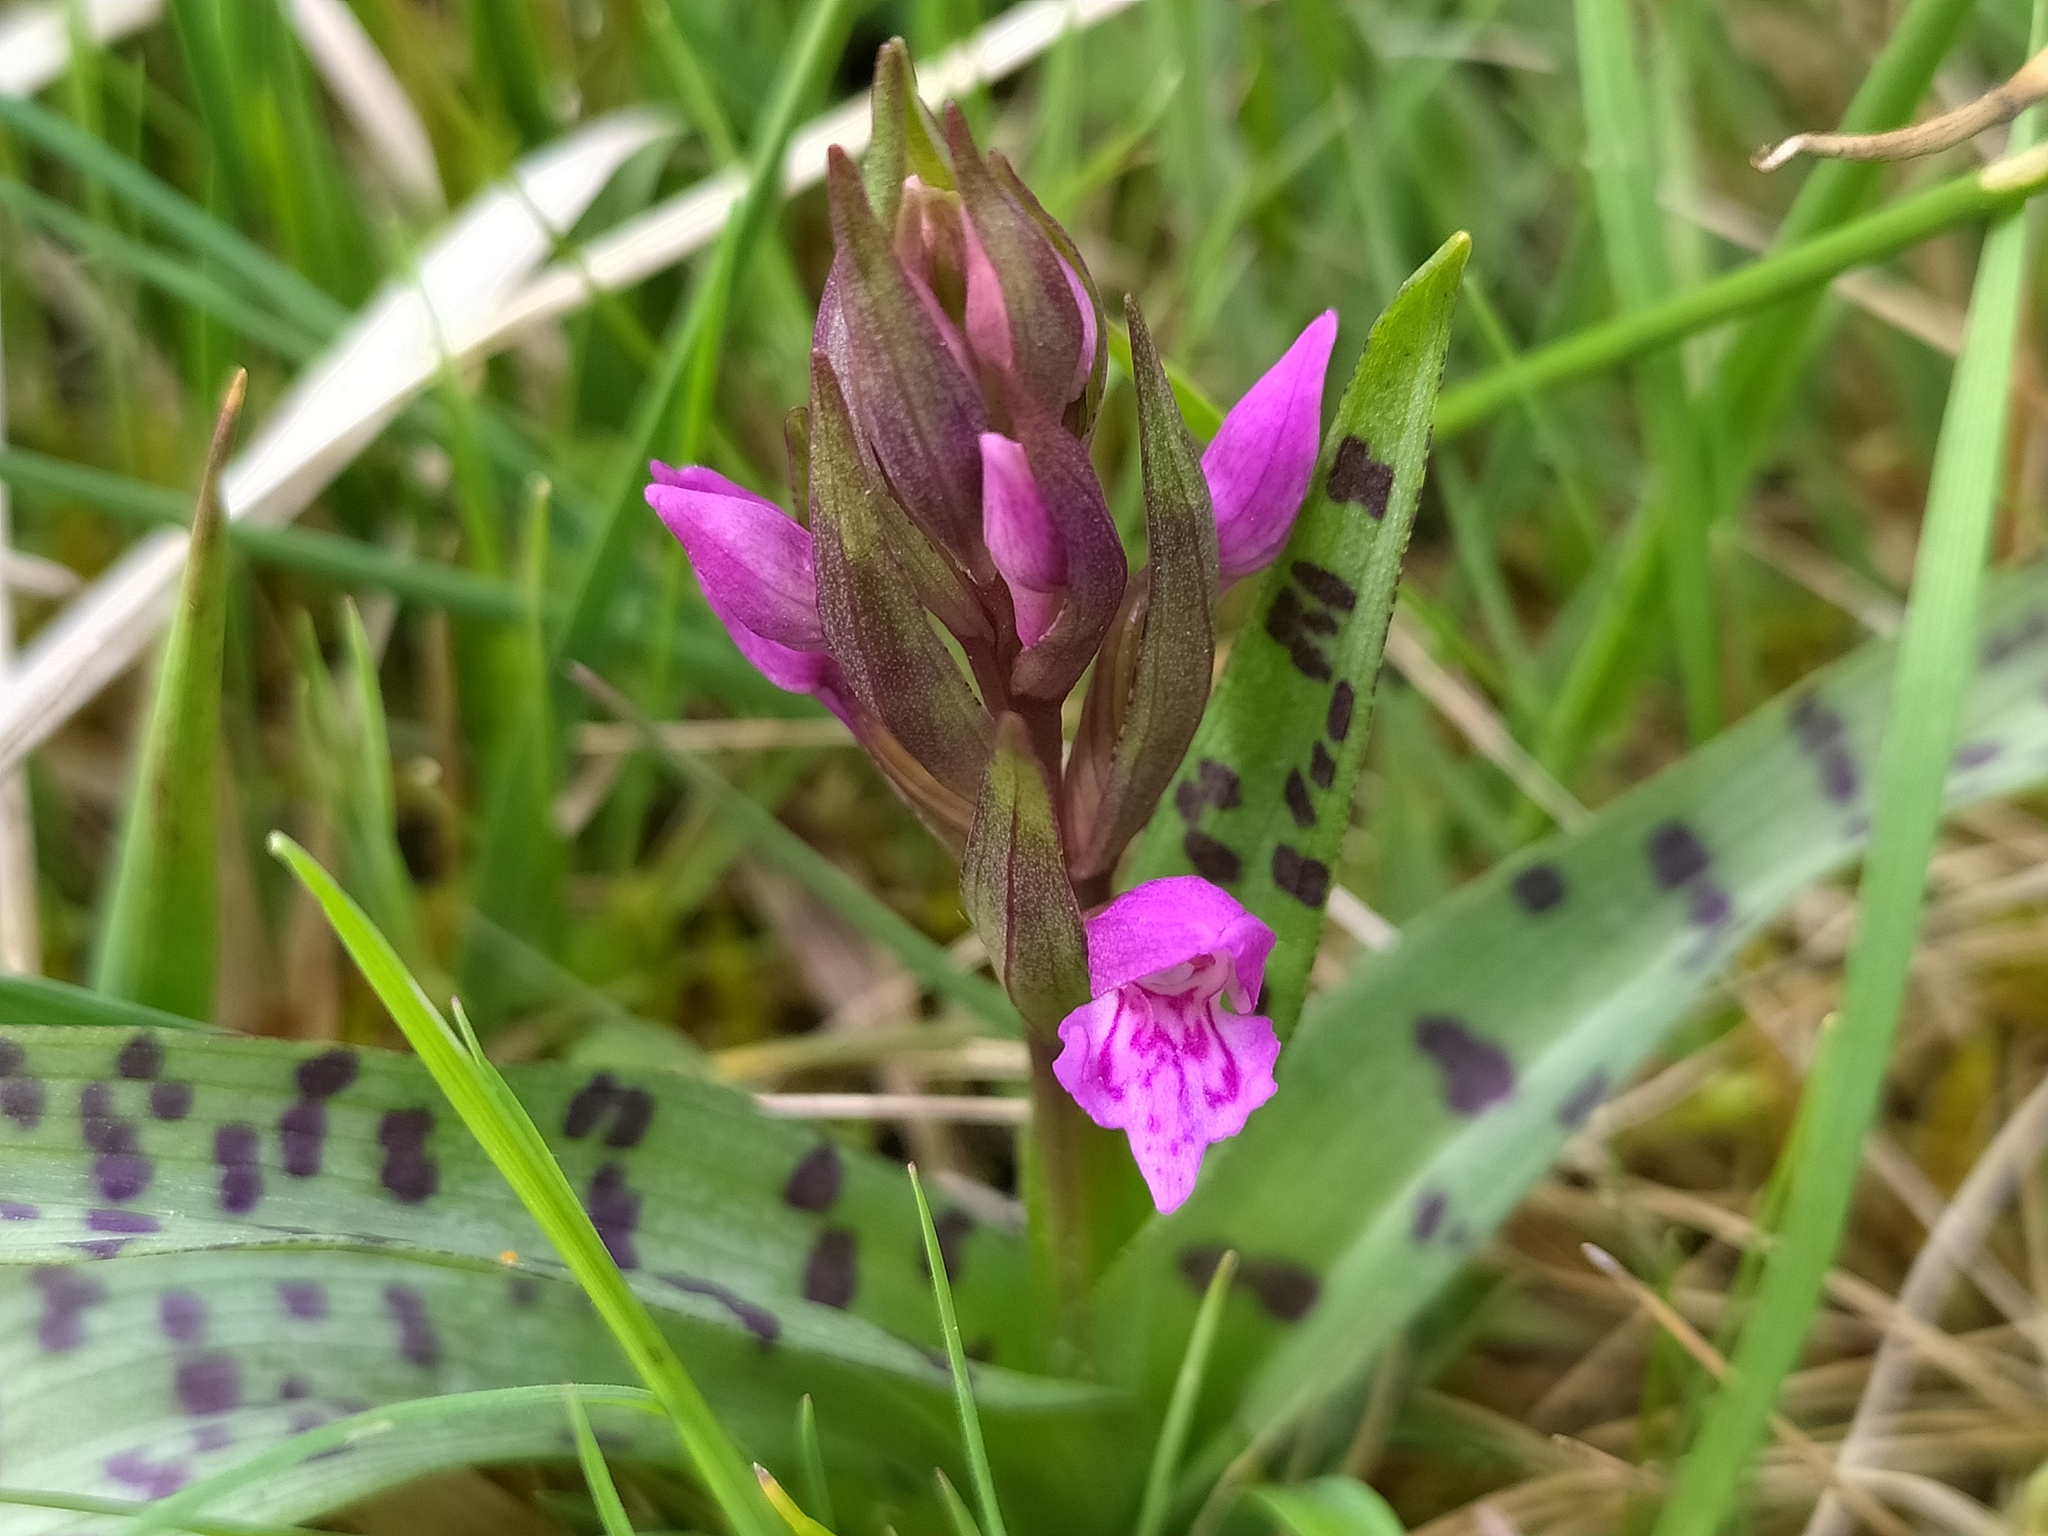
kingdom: Plantae
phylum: Tracheophyta
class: Liliopsida
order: Asparagales
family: Orchidaceae
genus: Dactylorhiza
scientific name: Dactylorhiza majalis
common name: Marsh orchid
